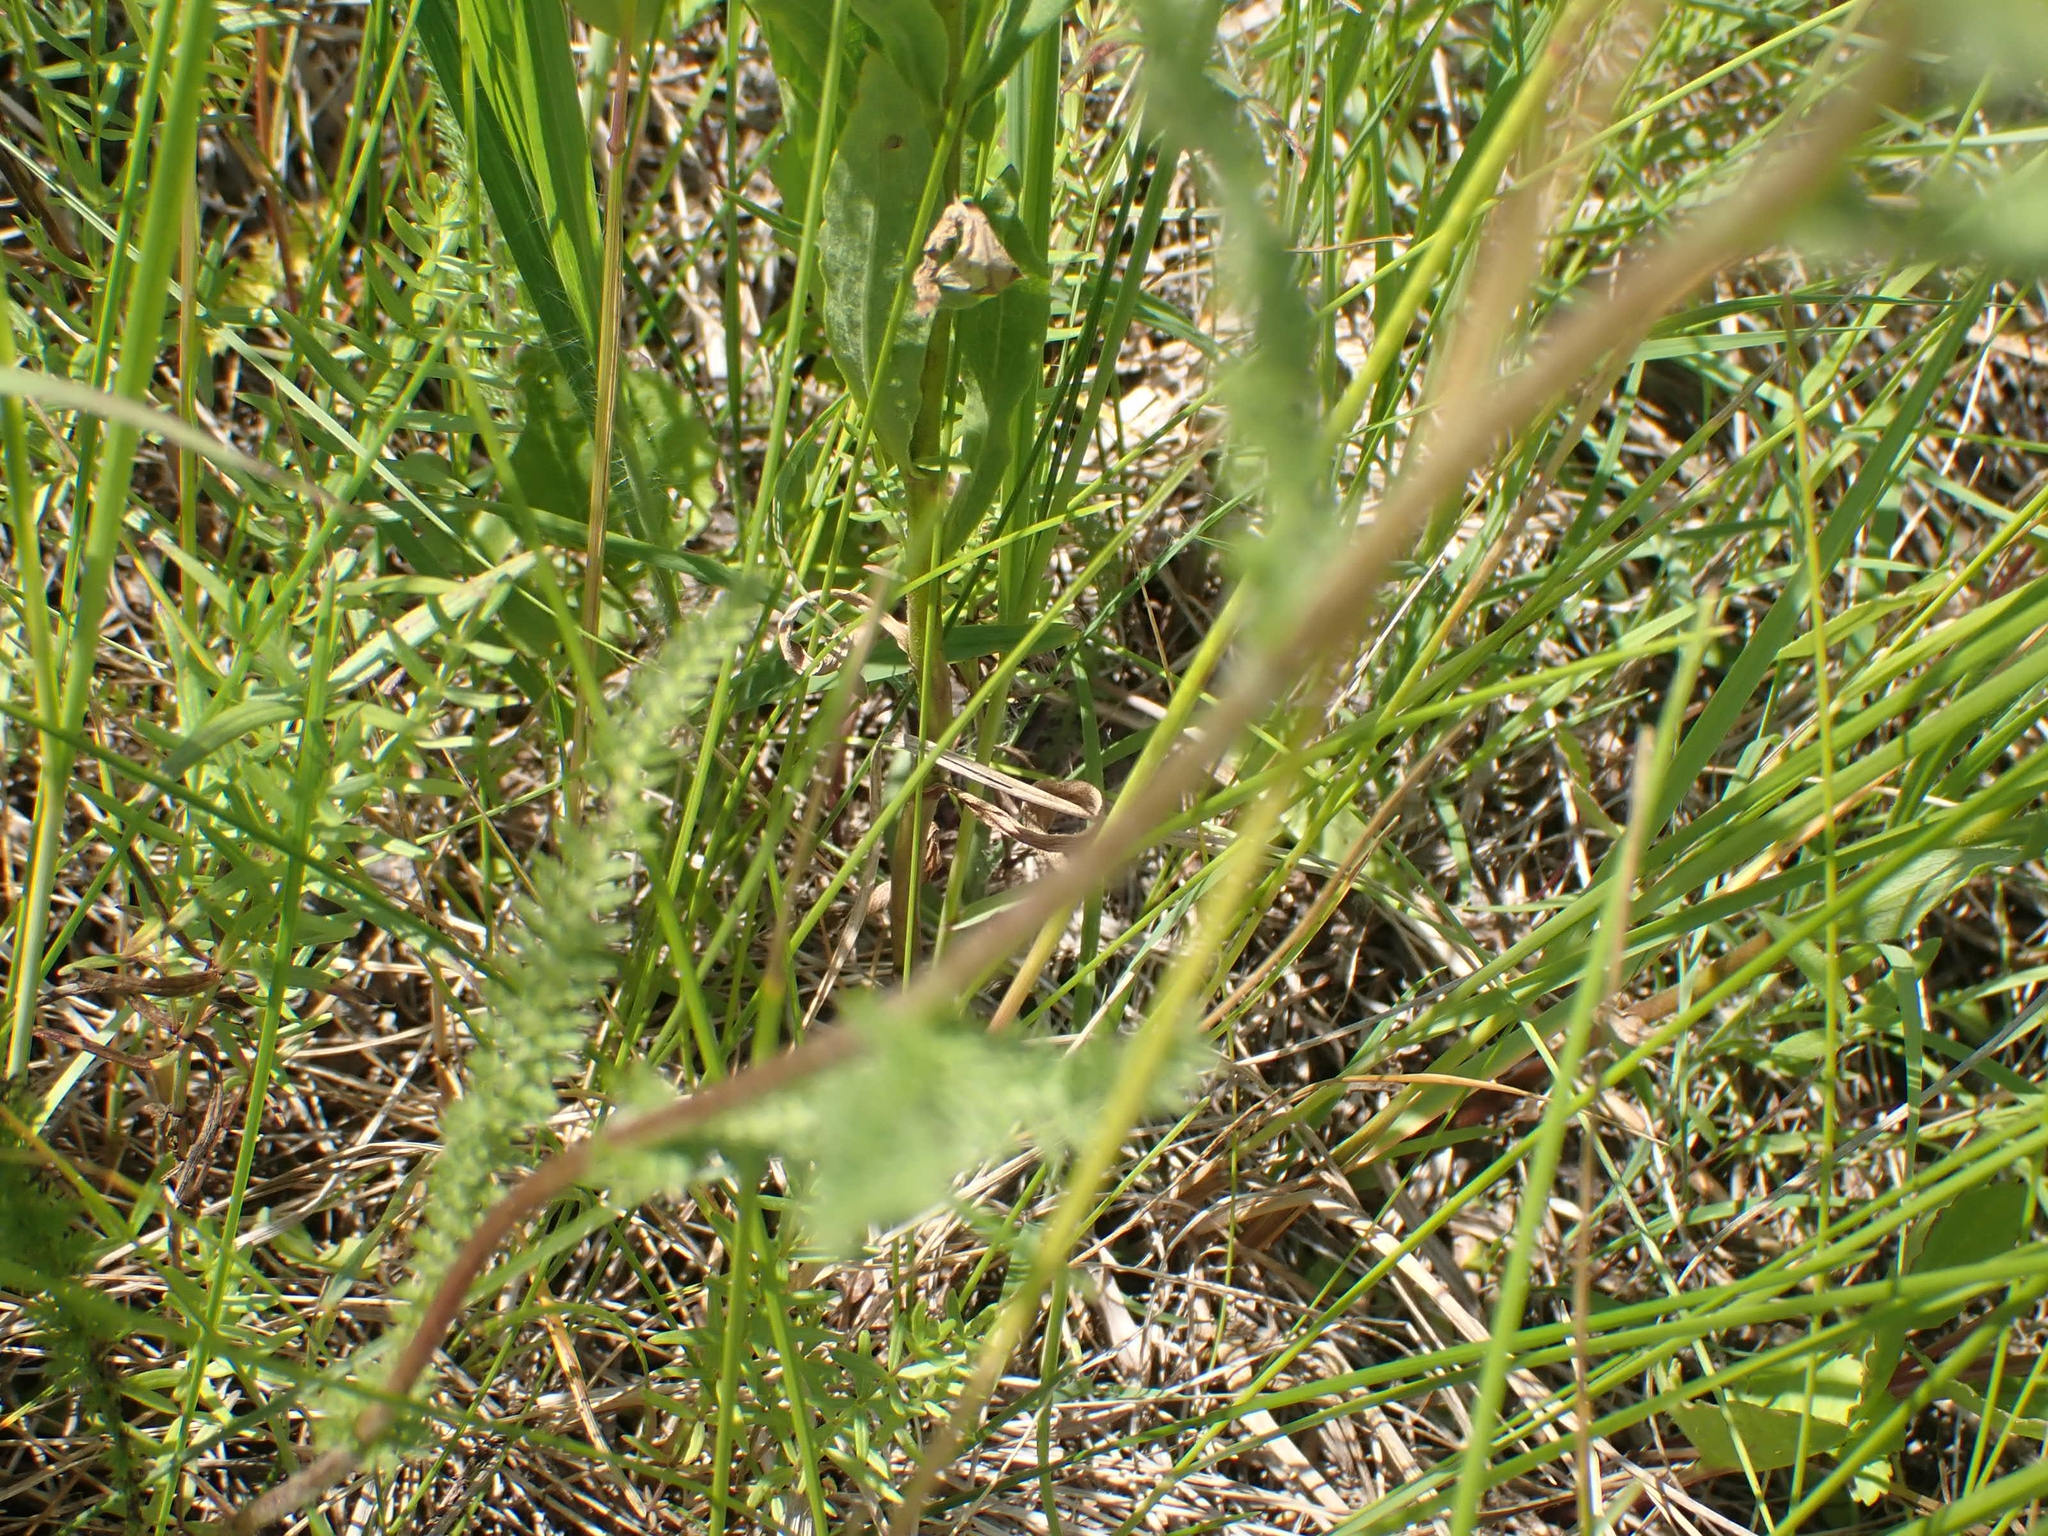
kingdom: Plantae
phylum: Tracheophyta
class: Magnoliopsida
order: Asterales
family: Asteraceae
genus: Achillea
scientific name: Achillea millefolium
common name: Yarrow
